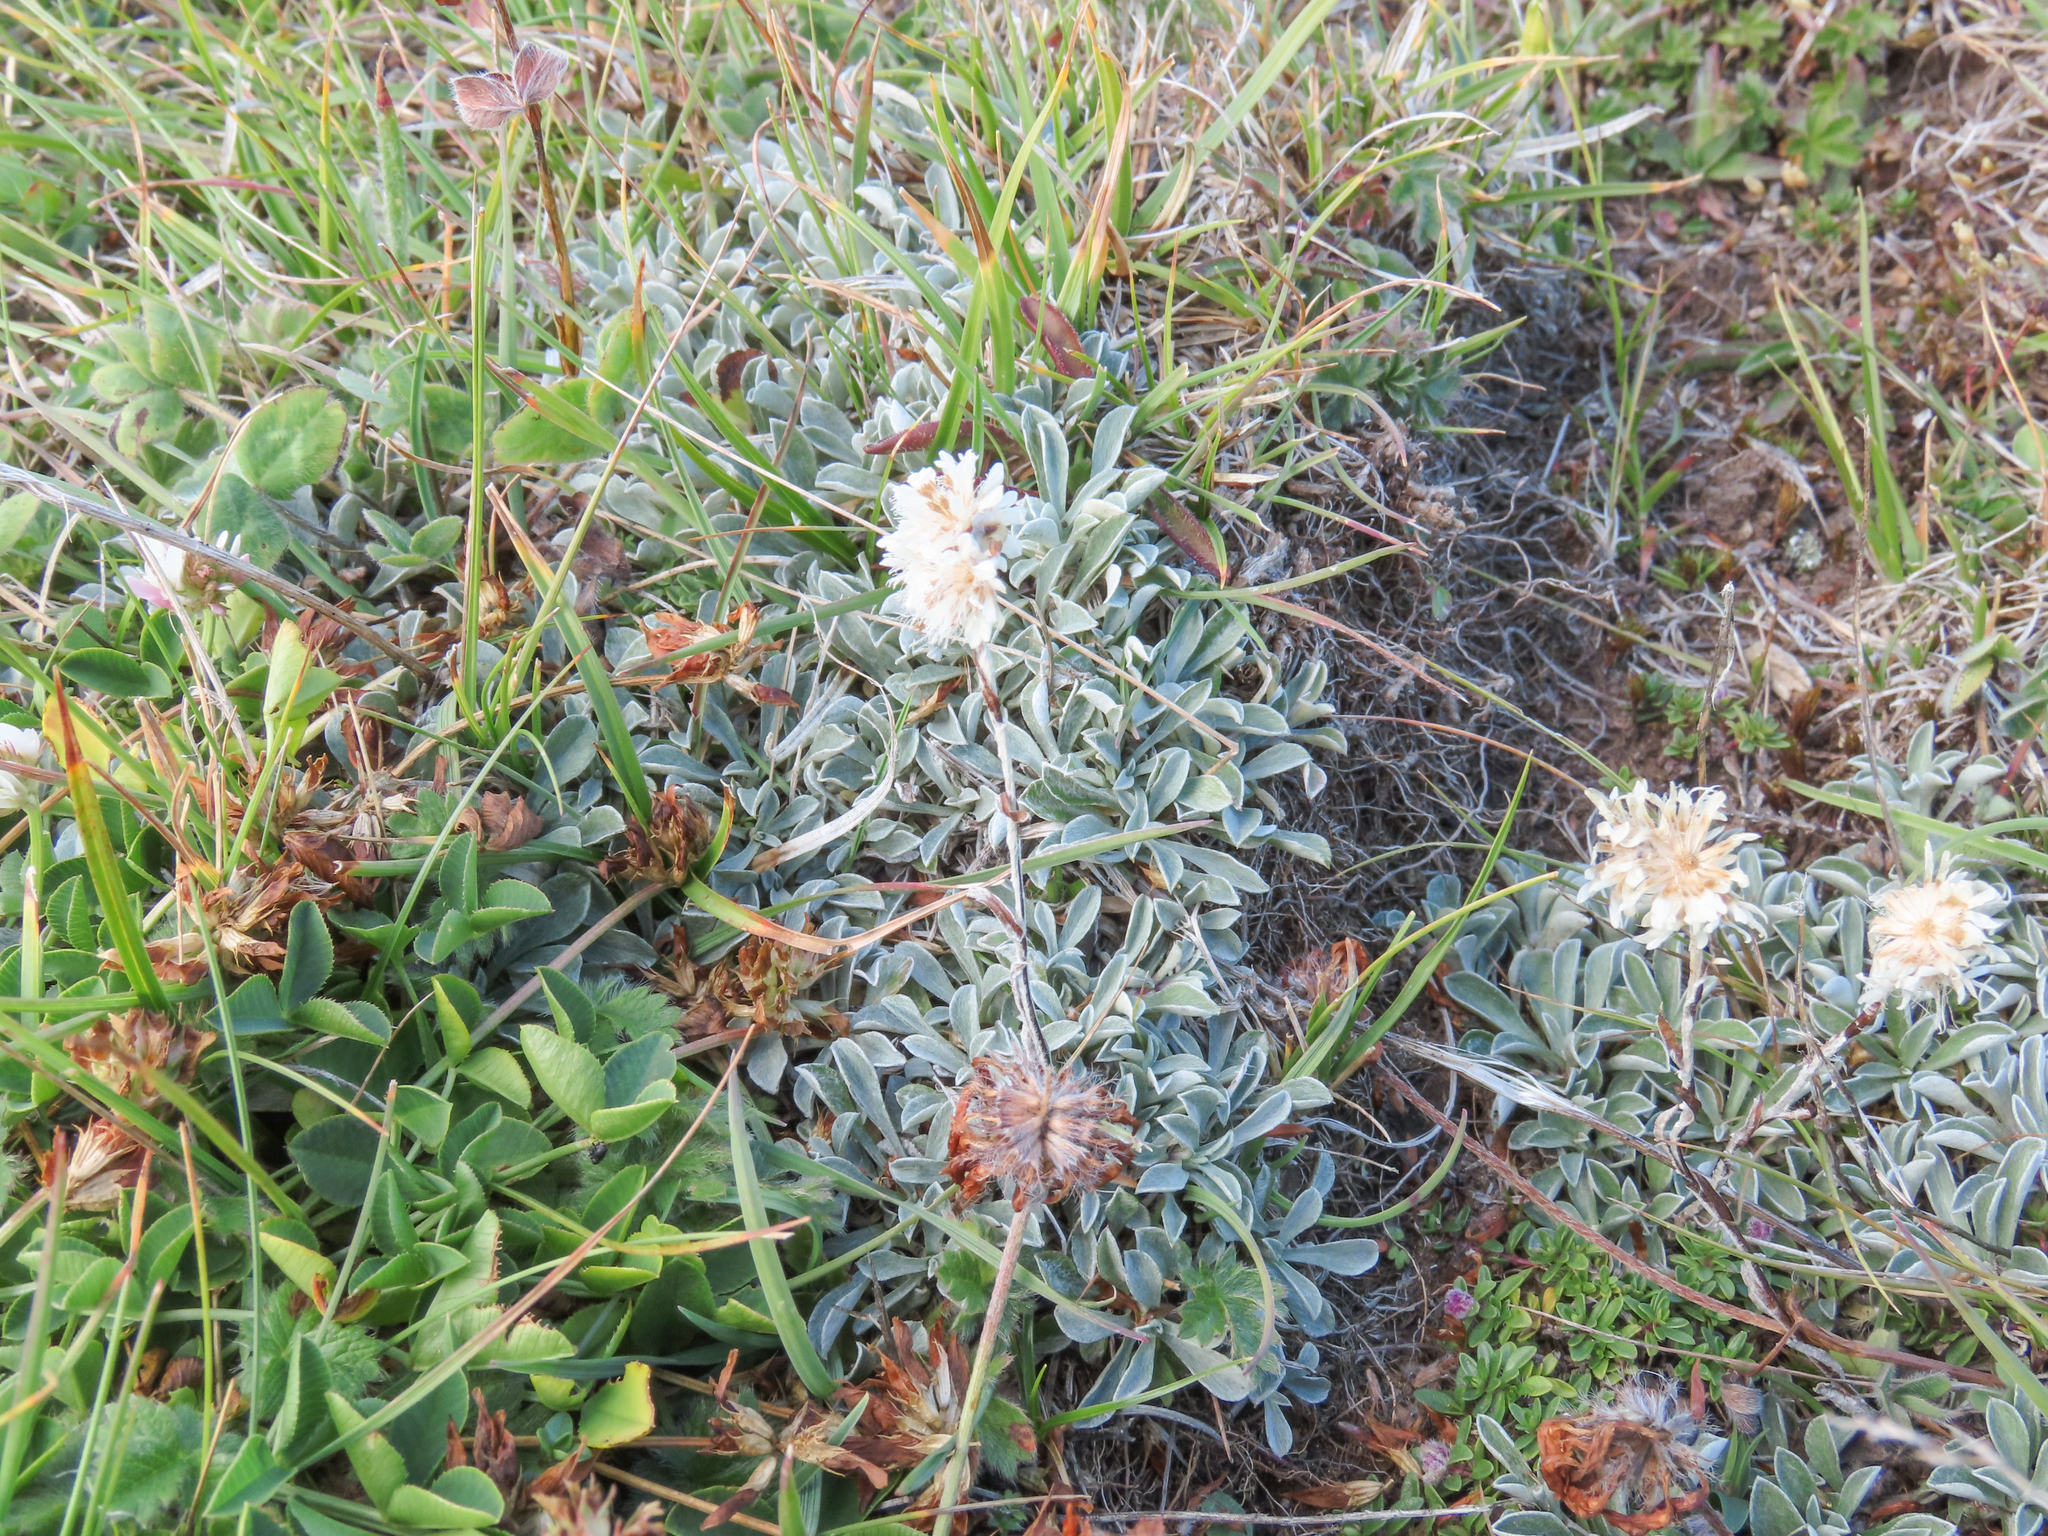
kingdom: Plantae
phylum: Tracheophyta
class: Magnoliopsida
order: Asterales
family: Asteraceae
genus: Antennaria
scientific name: Antennaria dioica
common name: Mountain everlasting
